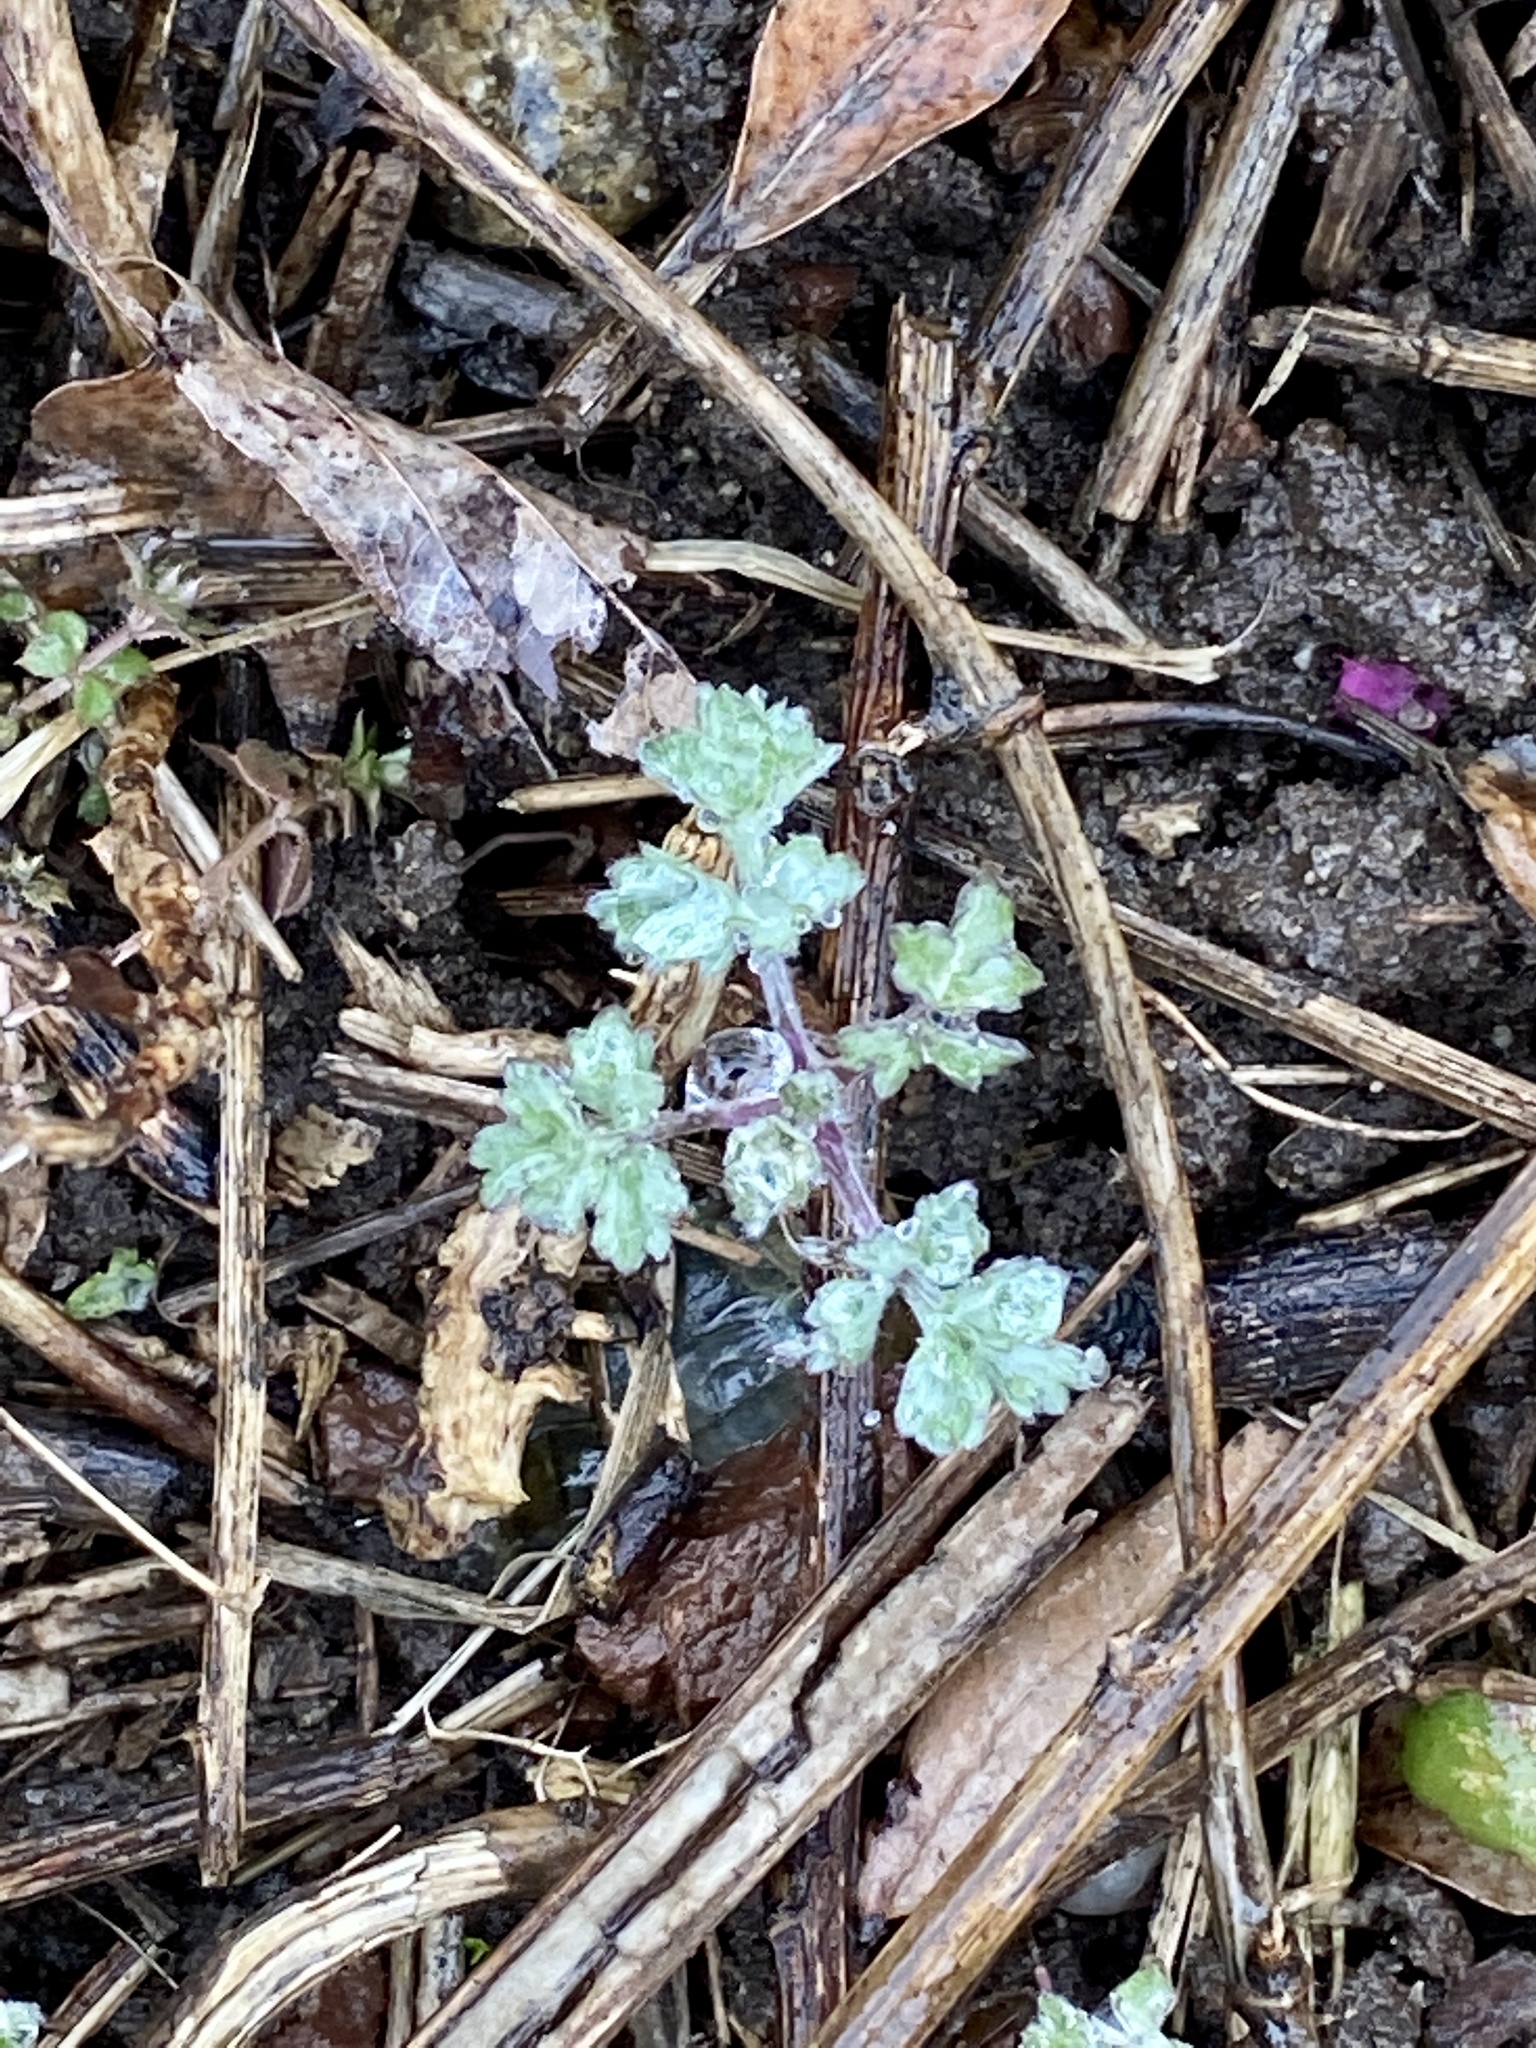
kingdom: Plantae
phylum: Tracheophyta
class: Magnoliopsida
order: Asterales
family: Asteraceae
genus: Artemisia
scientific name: Artemisia vulgaris
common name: Mugwort
